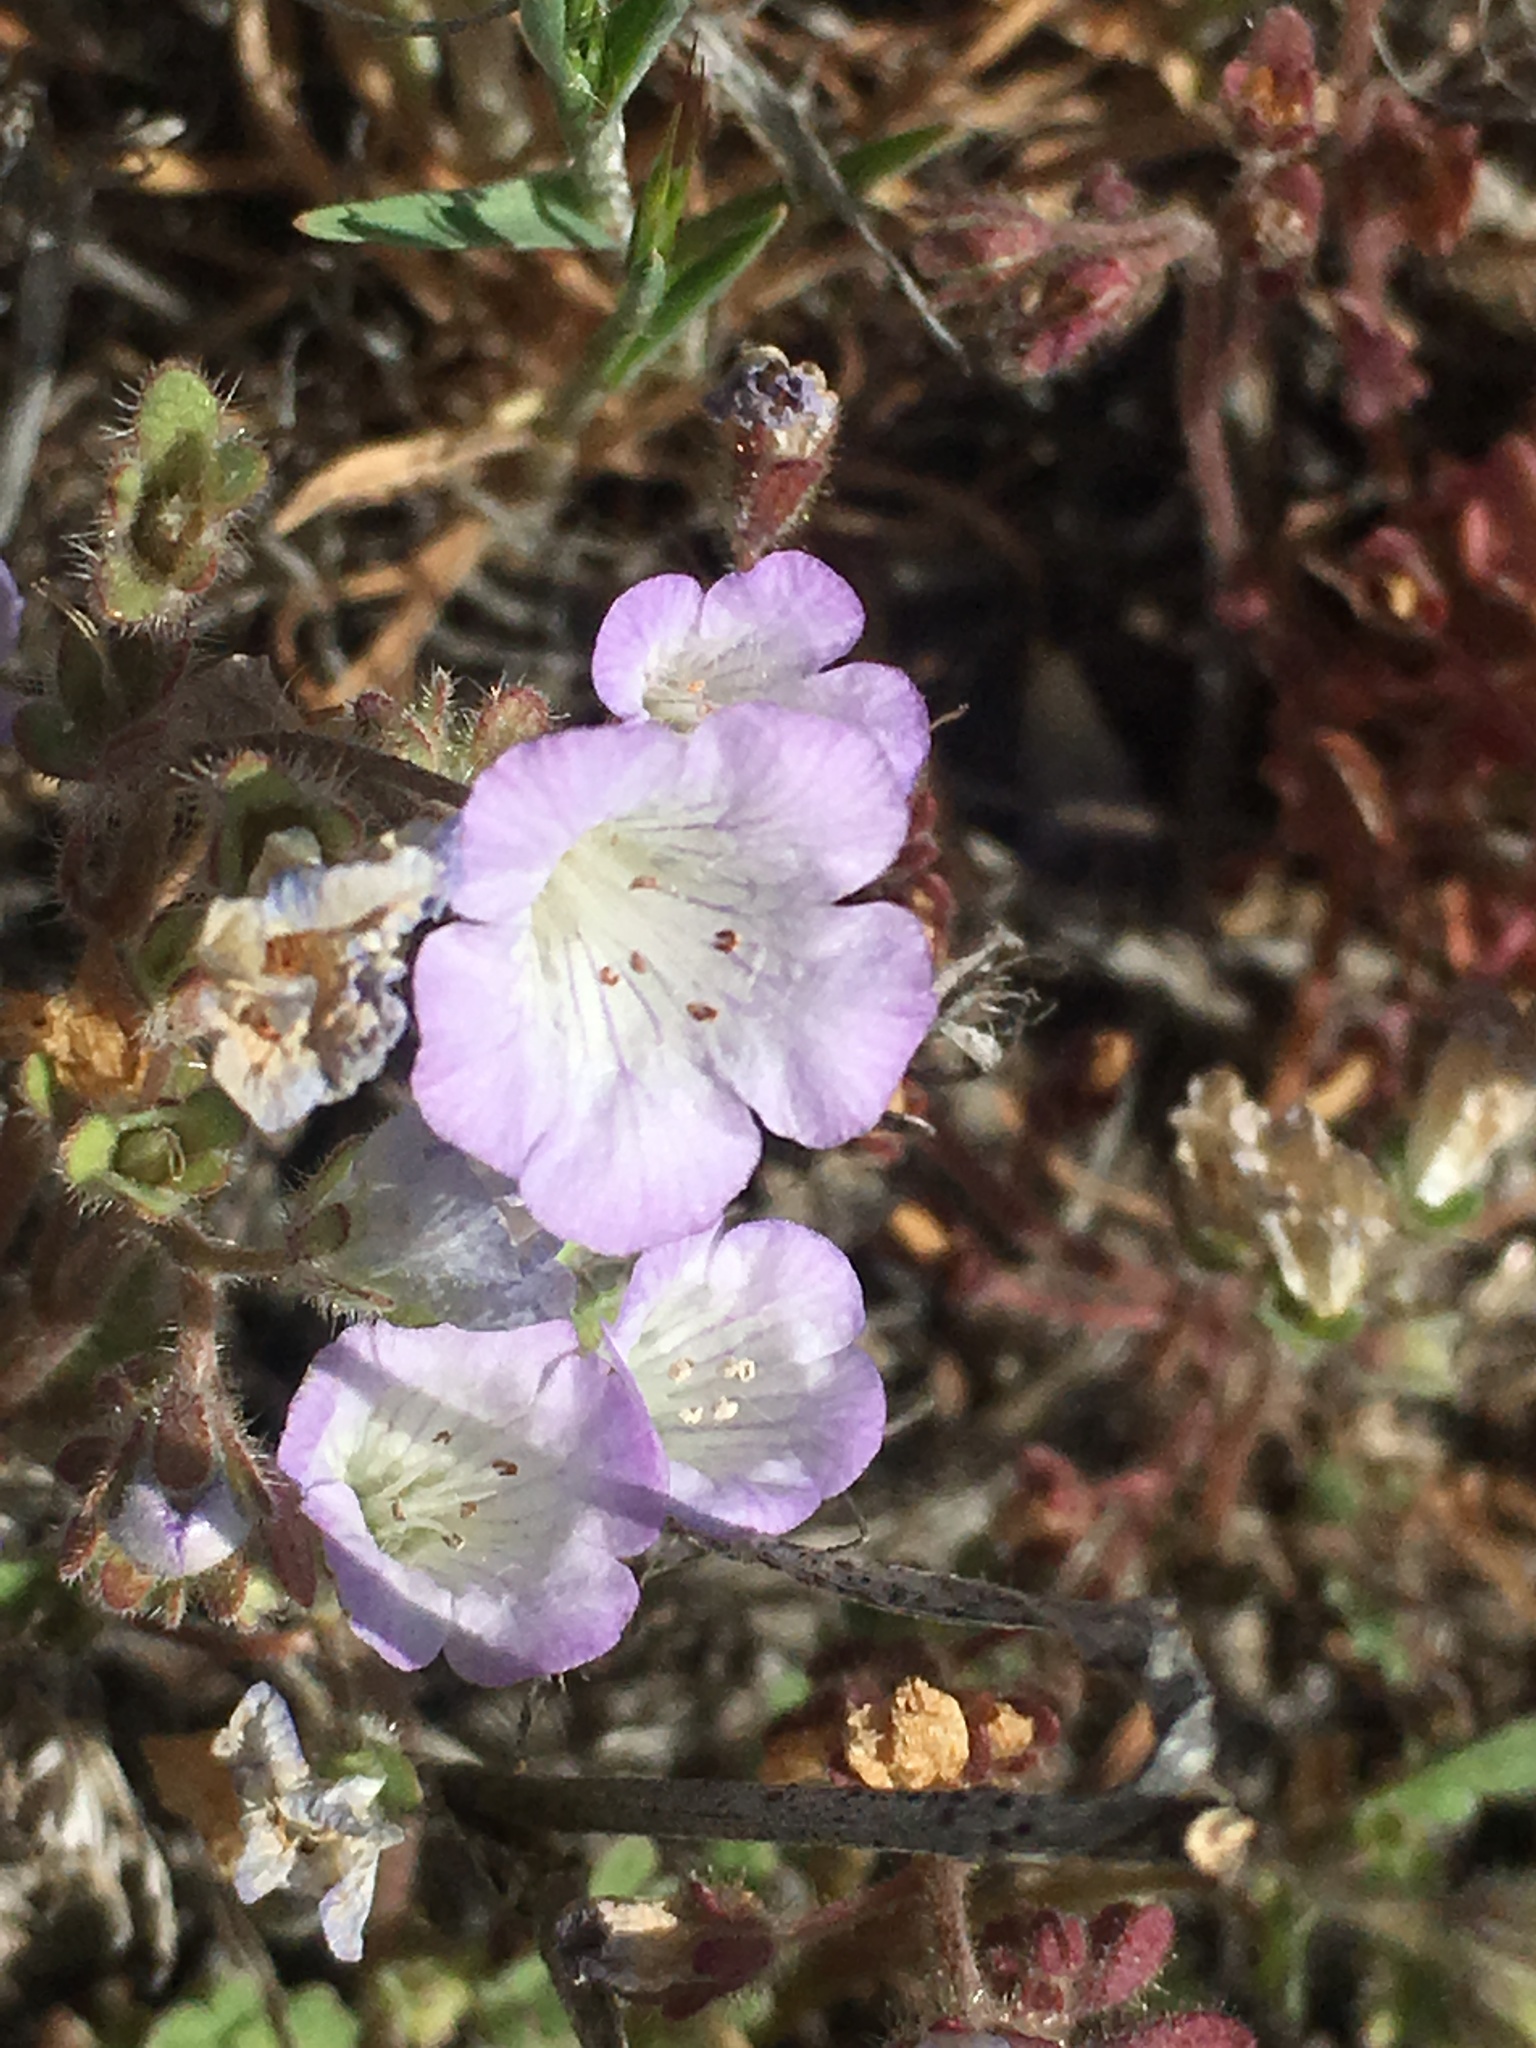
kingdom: Plantae
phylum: Tracheophyta
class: Magnoliopsida
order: Boraginales
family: Hydrophyllaceae
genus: Phacelia
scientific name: Phacelia douglasii
